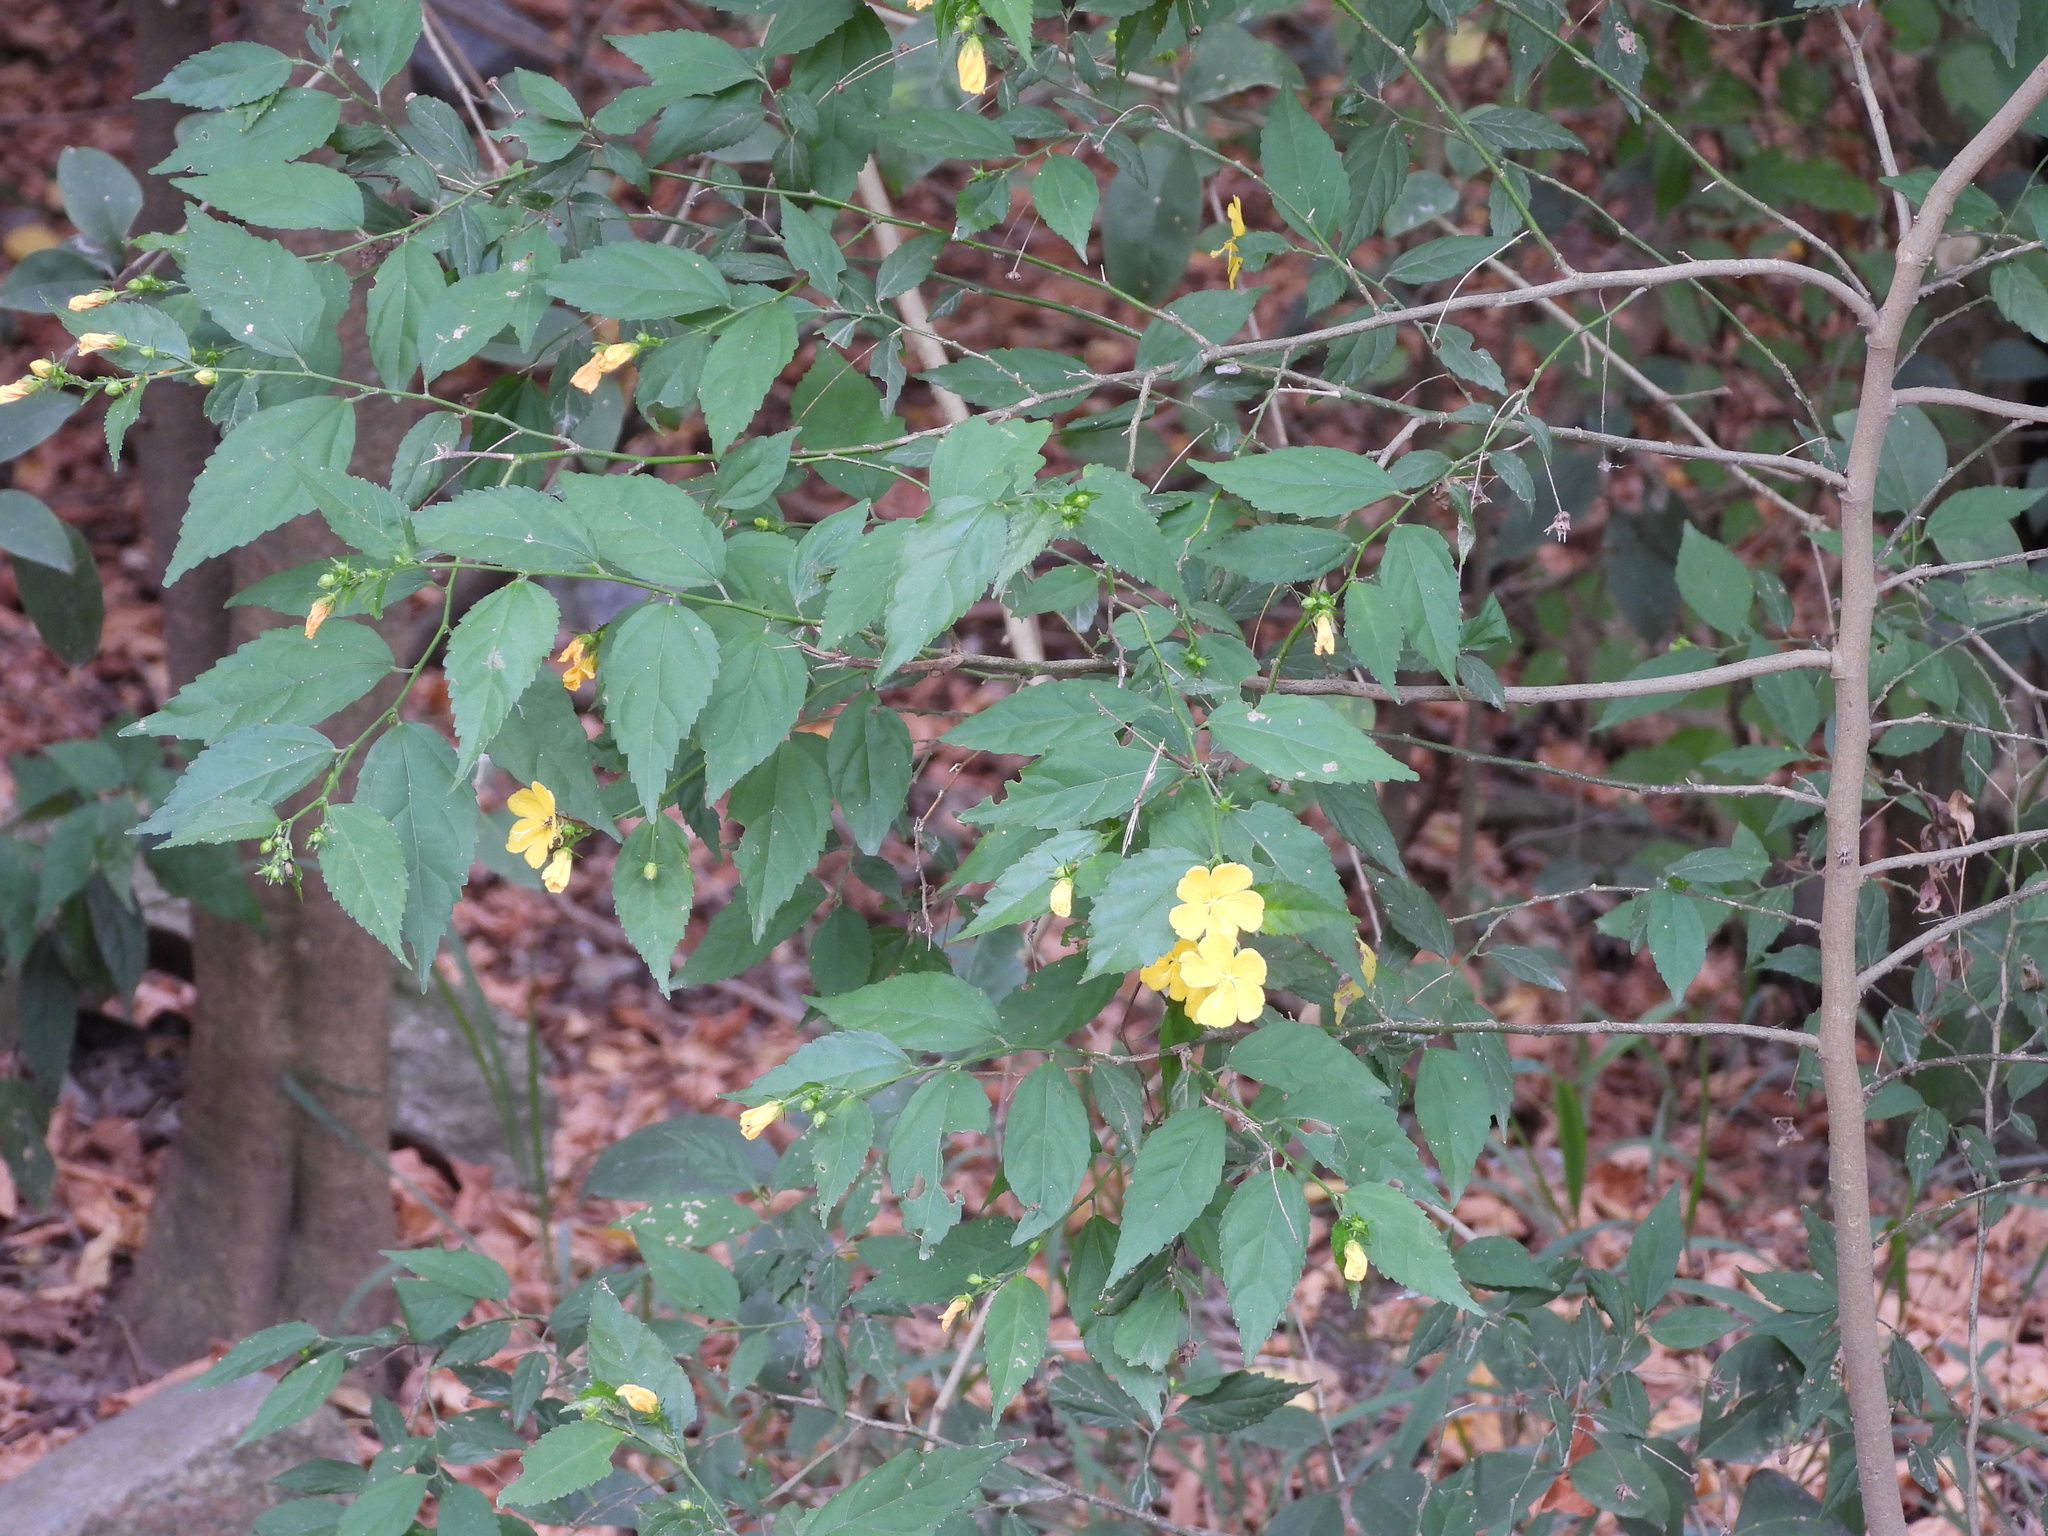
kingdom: Plantae
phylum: Tracheophyta
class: Magnoliopsida
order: Malvales
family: Malvaceae
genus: Pavonia
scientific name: Pavonia sepium
